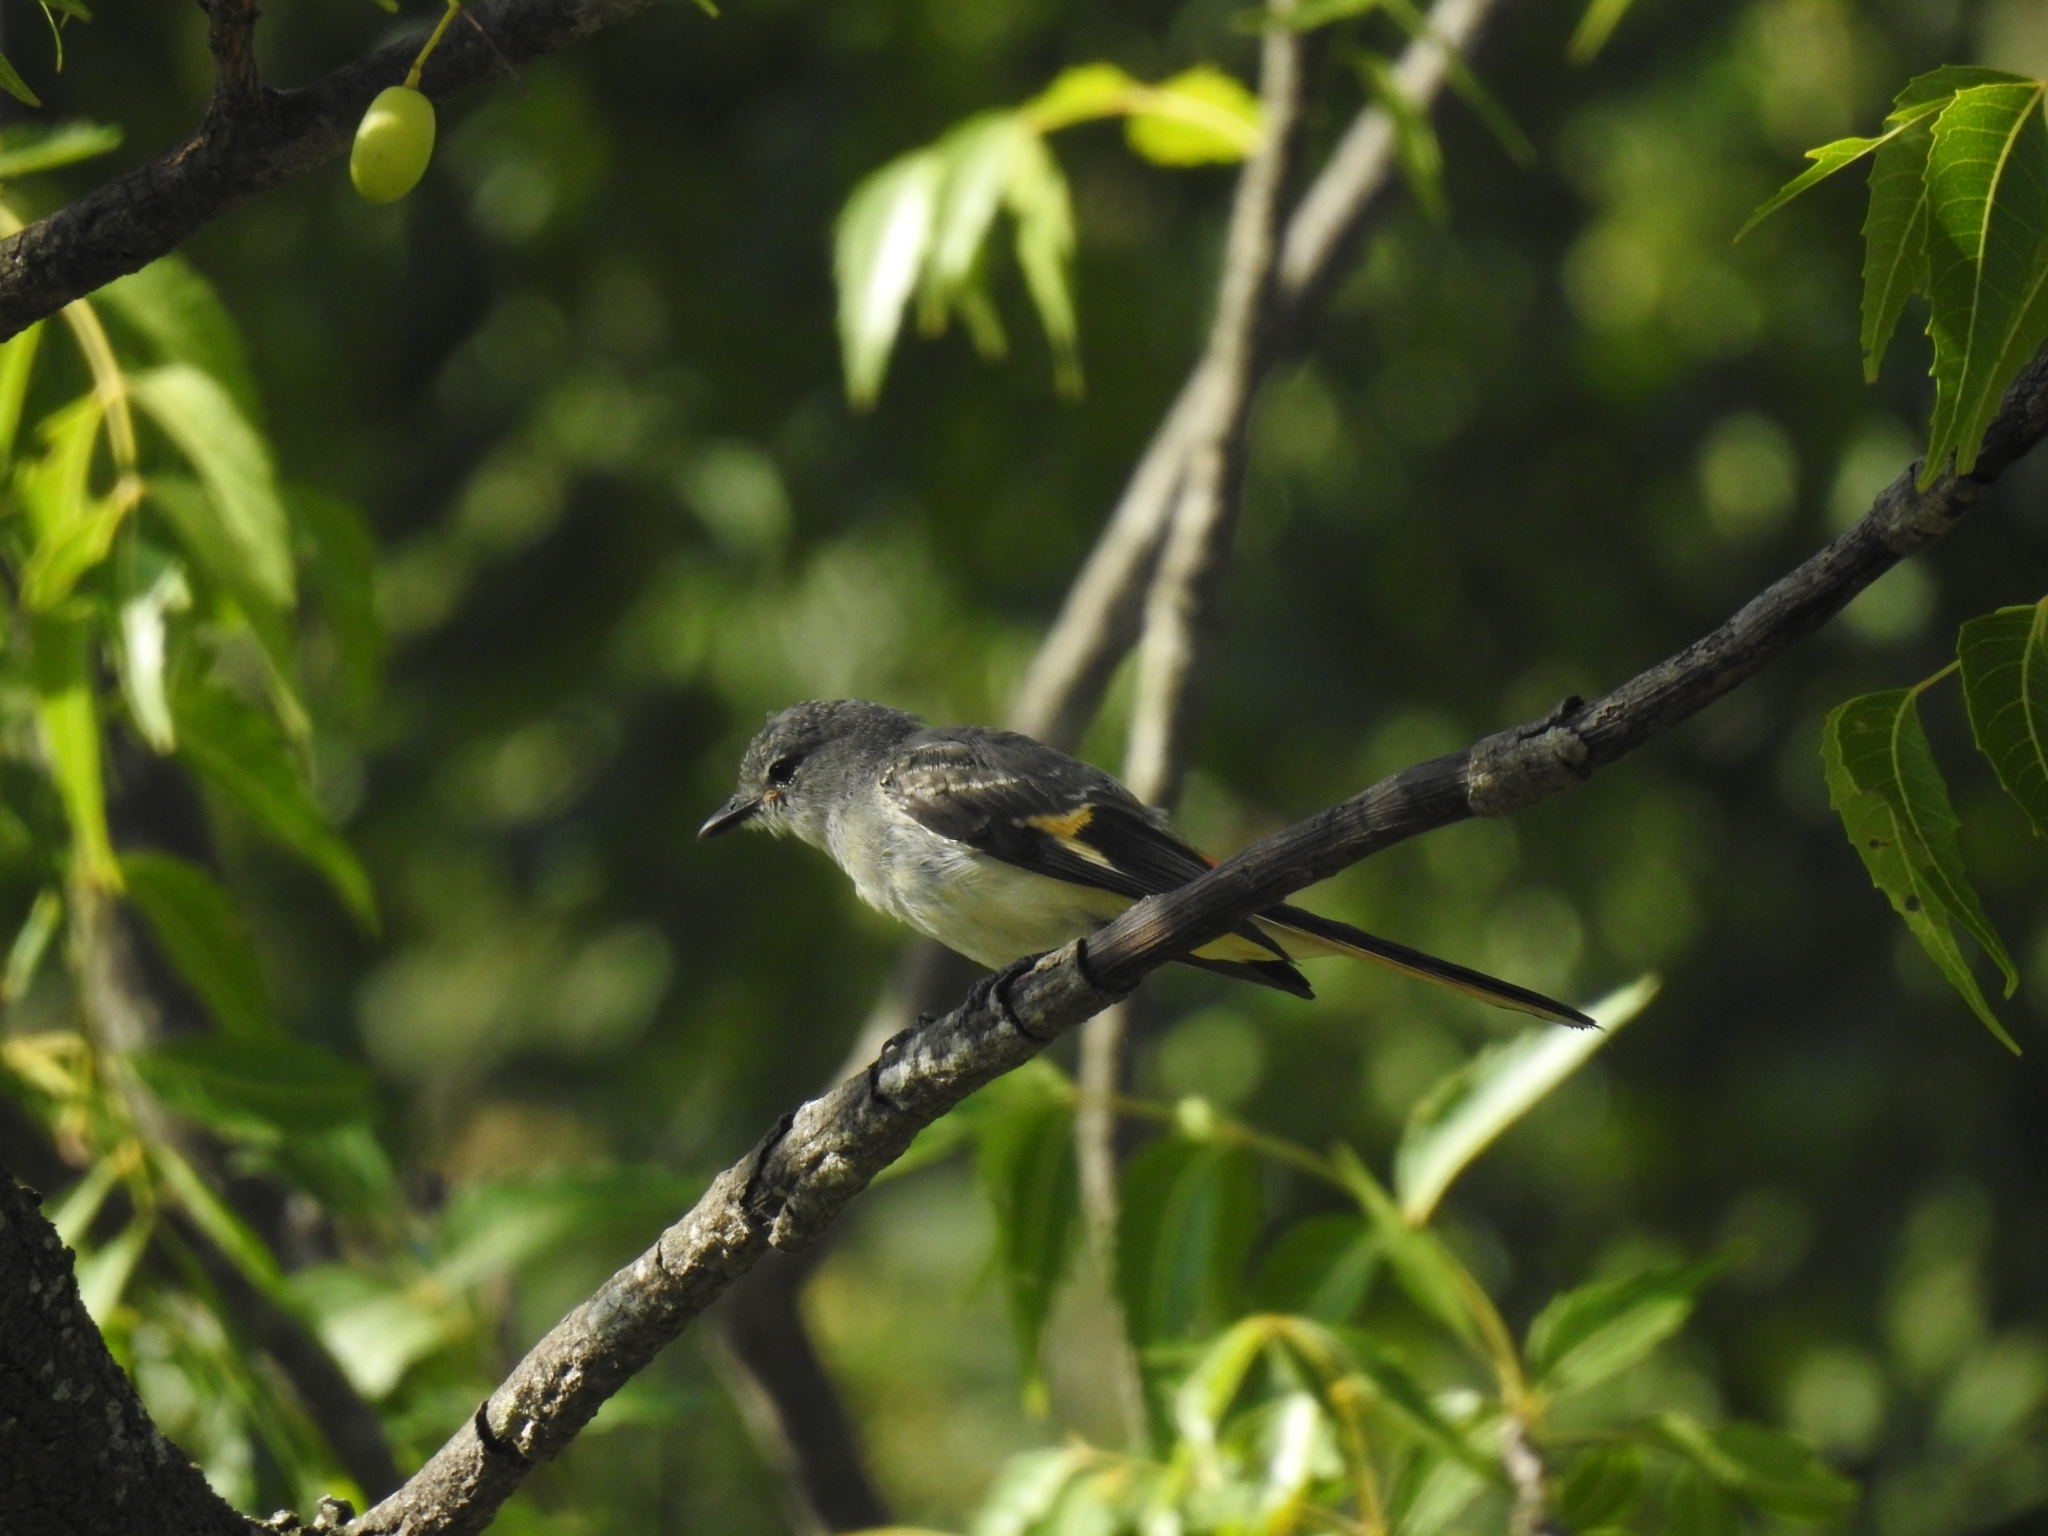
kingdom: Animalia
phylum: Chordata
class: Aves
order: Passeriformes
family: Campephagidae
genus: Pericrocotus
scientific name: Pericrocotus cinnamomeus
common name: Small minivet
